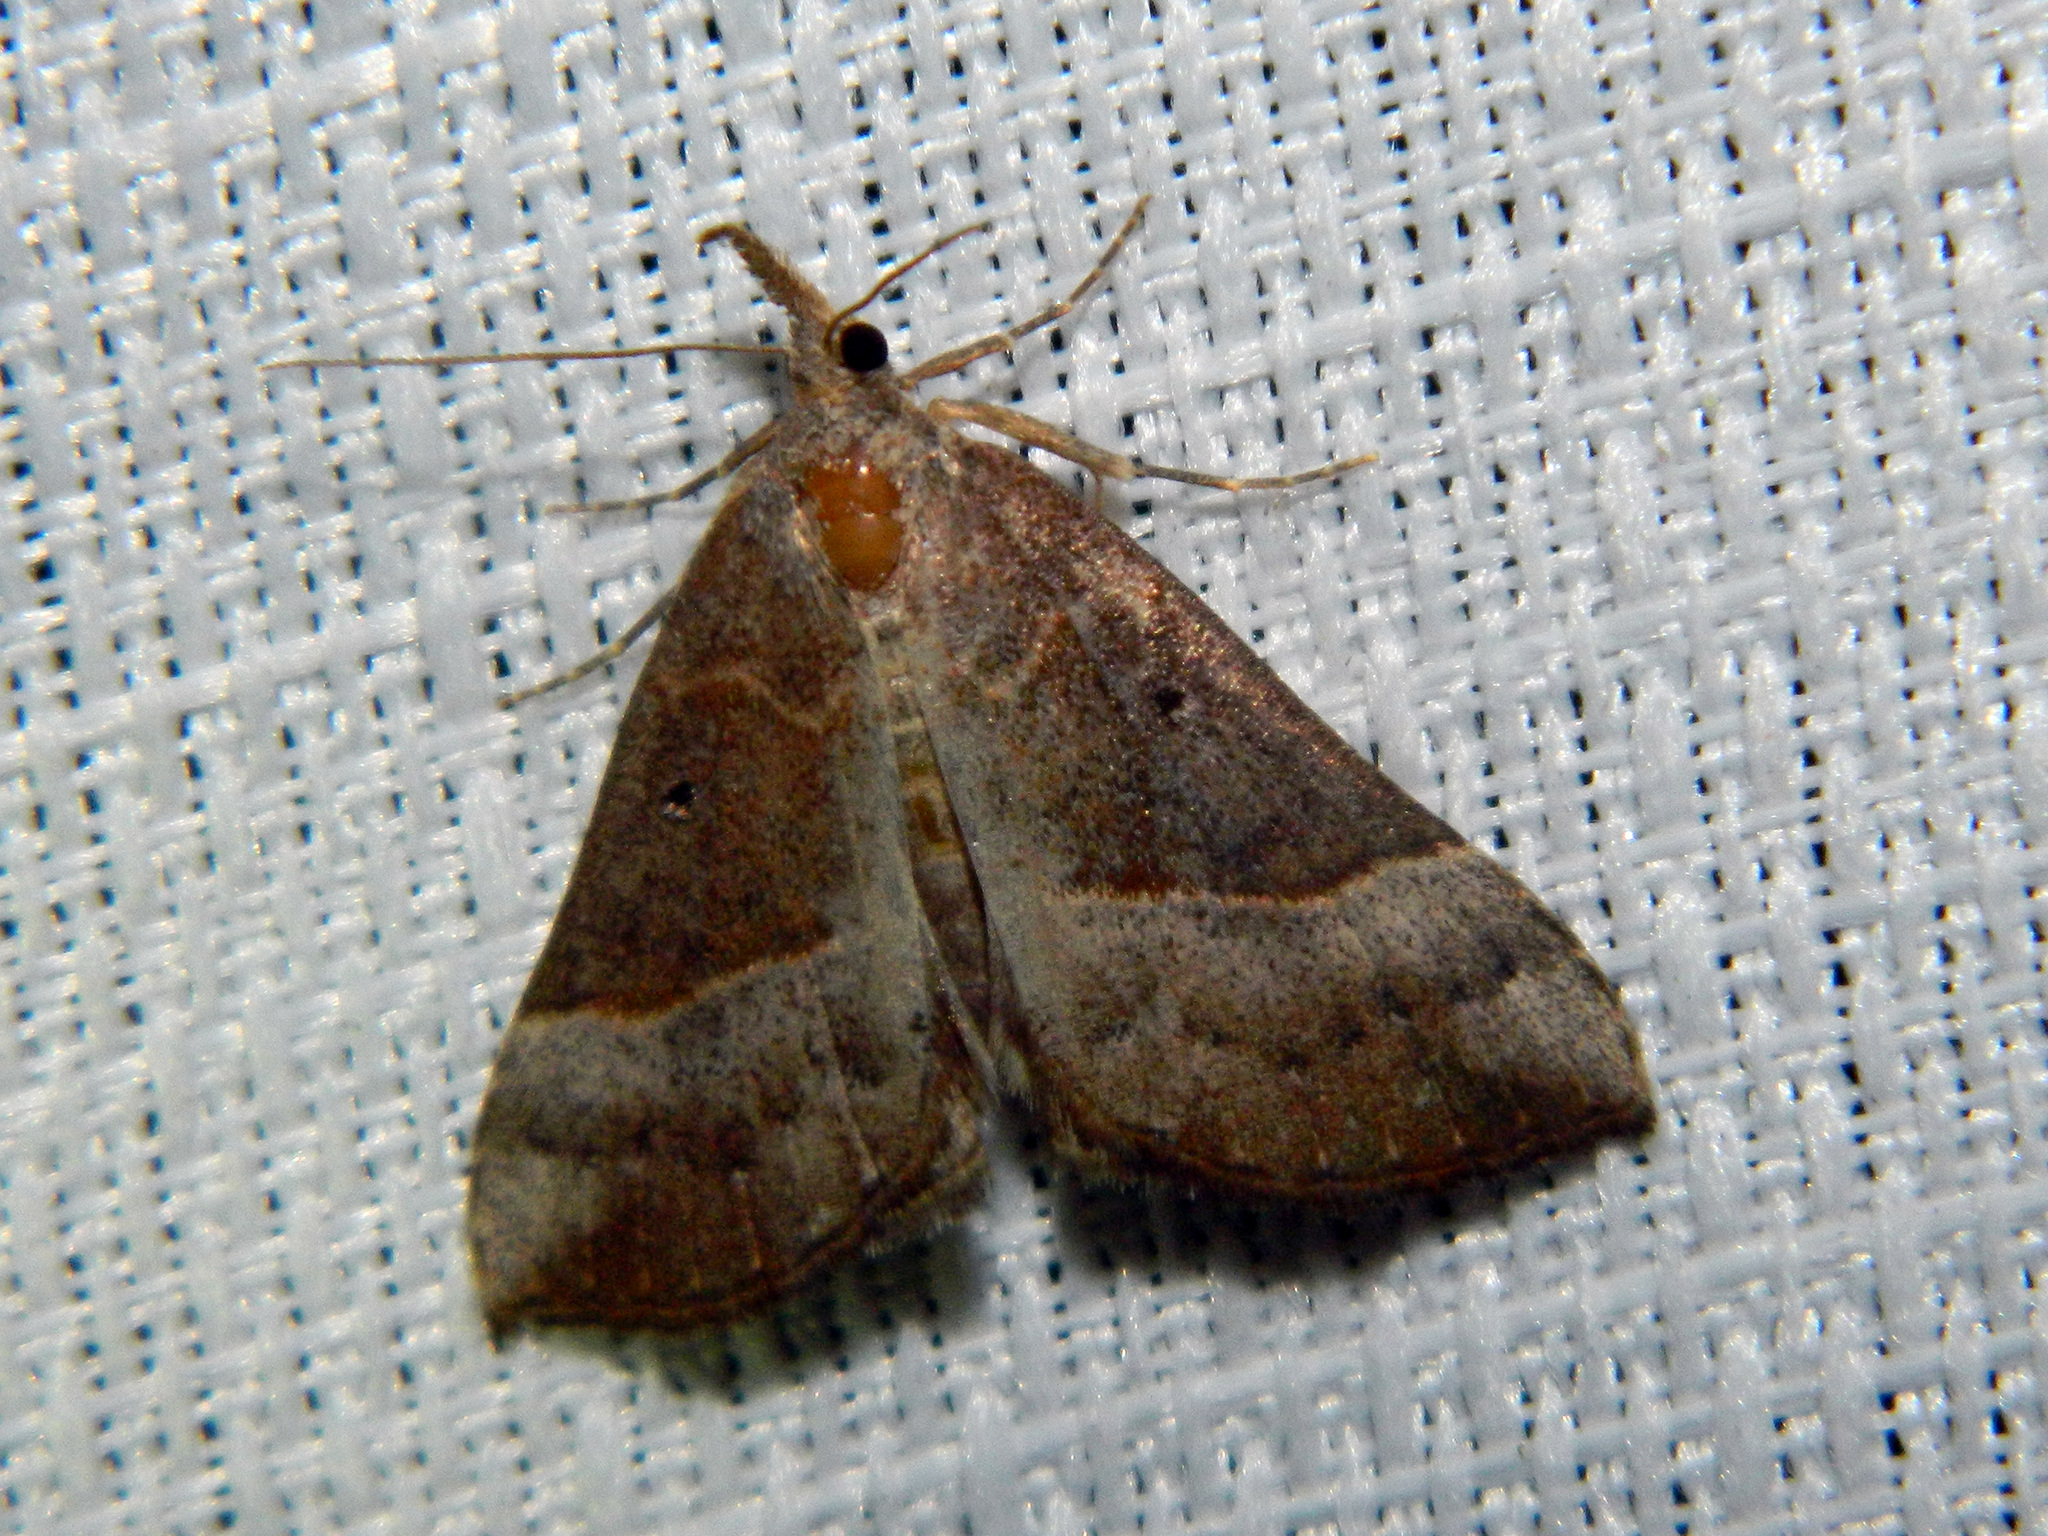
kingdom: Animalia
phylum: Arthropoda
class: Insecta
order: Lepidoptera
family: Erebidae
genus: Hypena
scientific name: Hypena eductalis
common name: Red-footed snout
